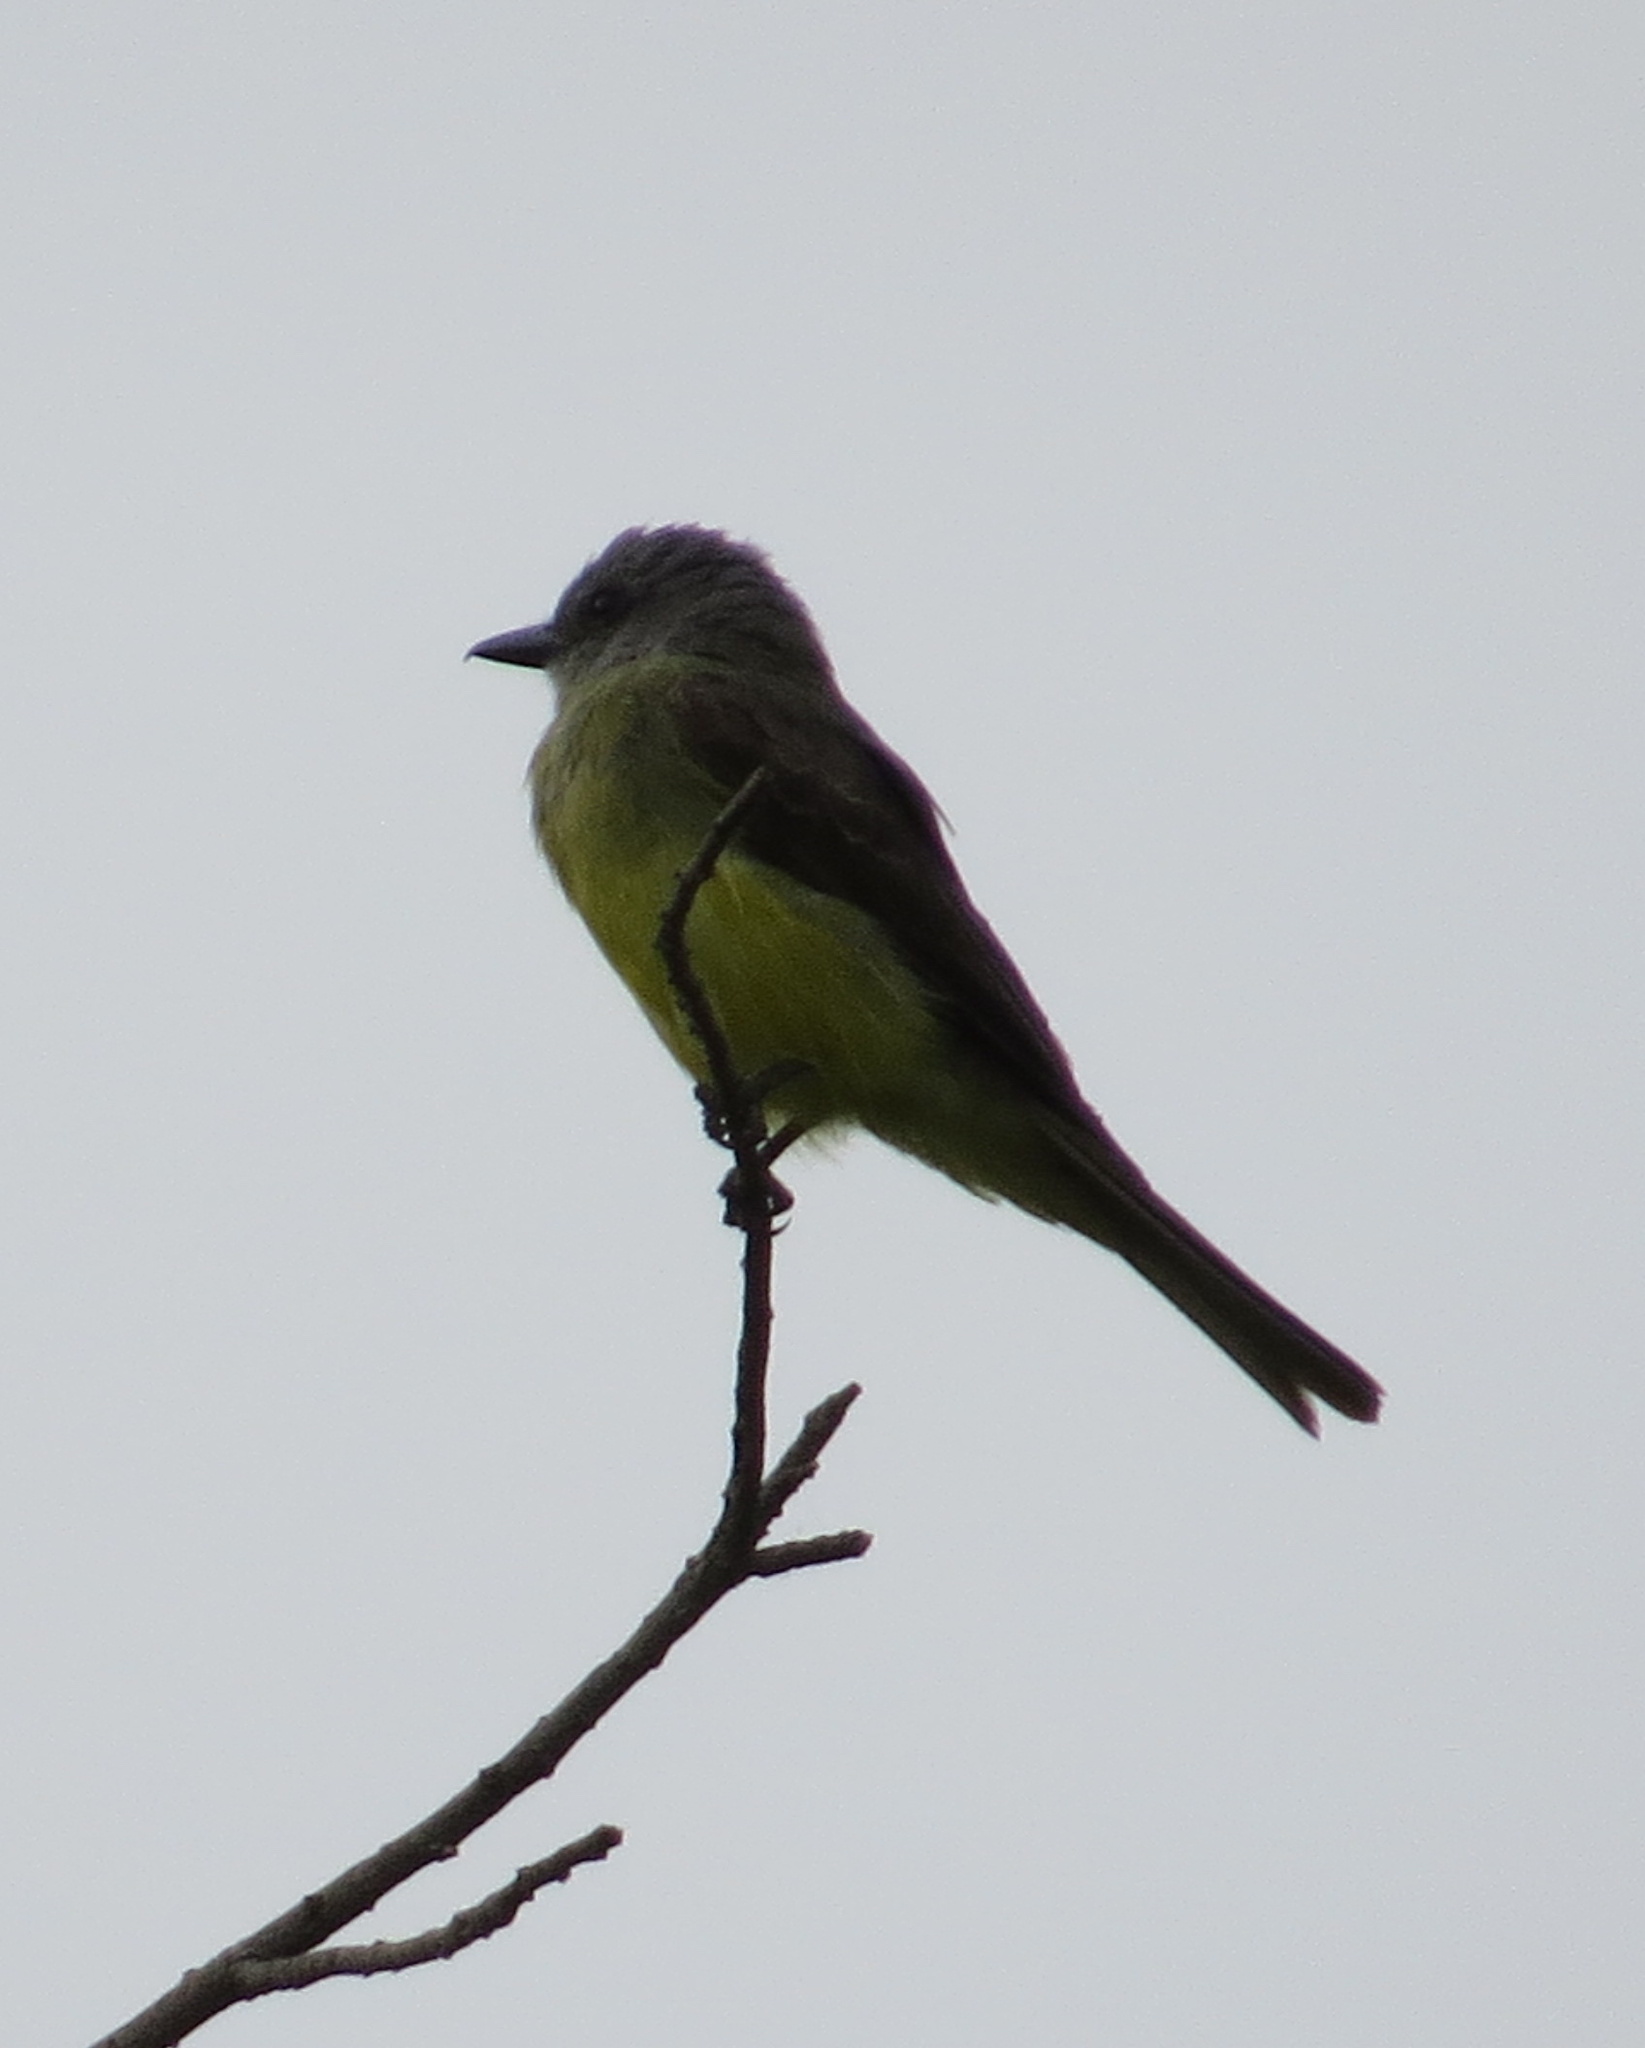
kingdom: Animalia
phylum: Chordata
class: Aves
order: Passeriformes
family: Tyrannidae
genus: Tyrannus
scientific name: Tyrannus melancholicus
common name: Tropical kingbird
